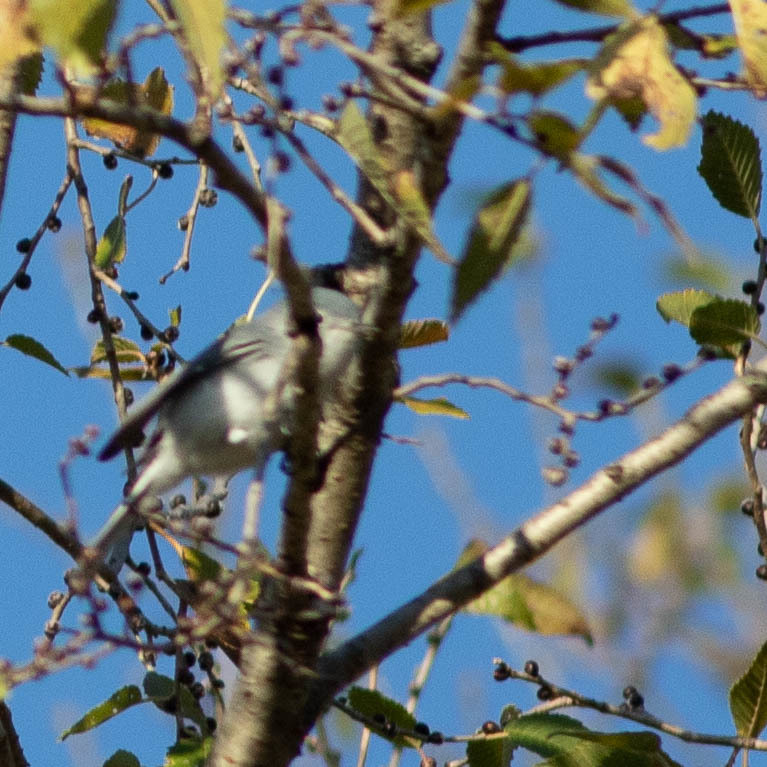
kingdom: Animalia
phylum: Chordata
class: Aves
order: Passeriformes
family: Polioptilidae
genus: Polioptila
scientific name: Polioptila caerulea
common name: Blue-gray gnatcatcher
